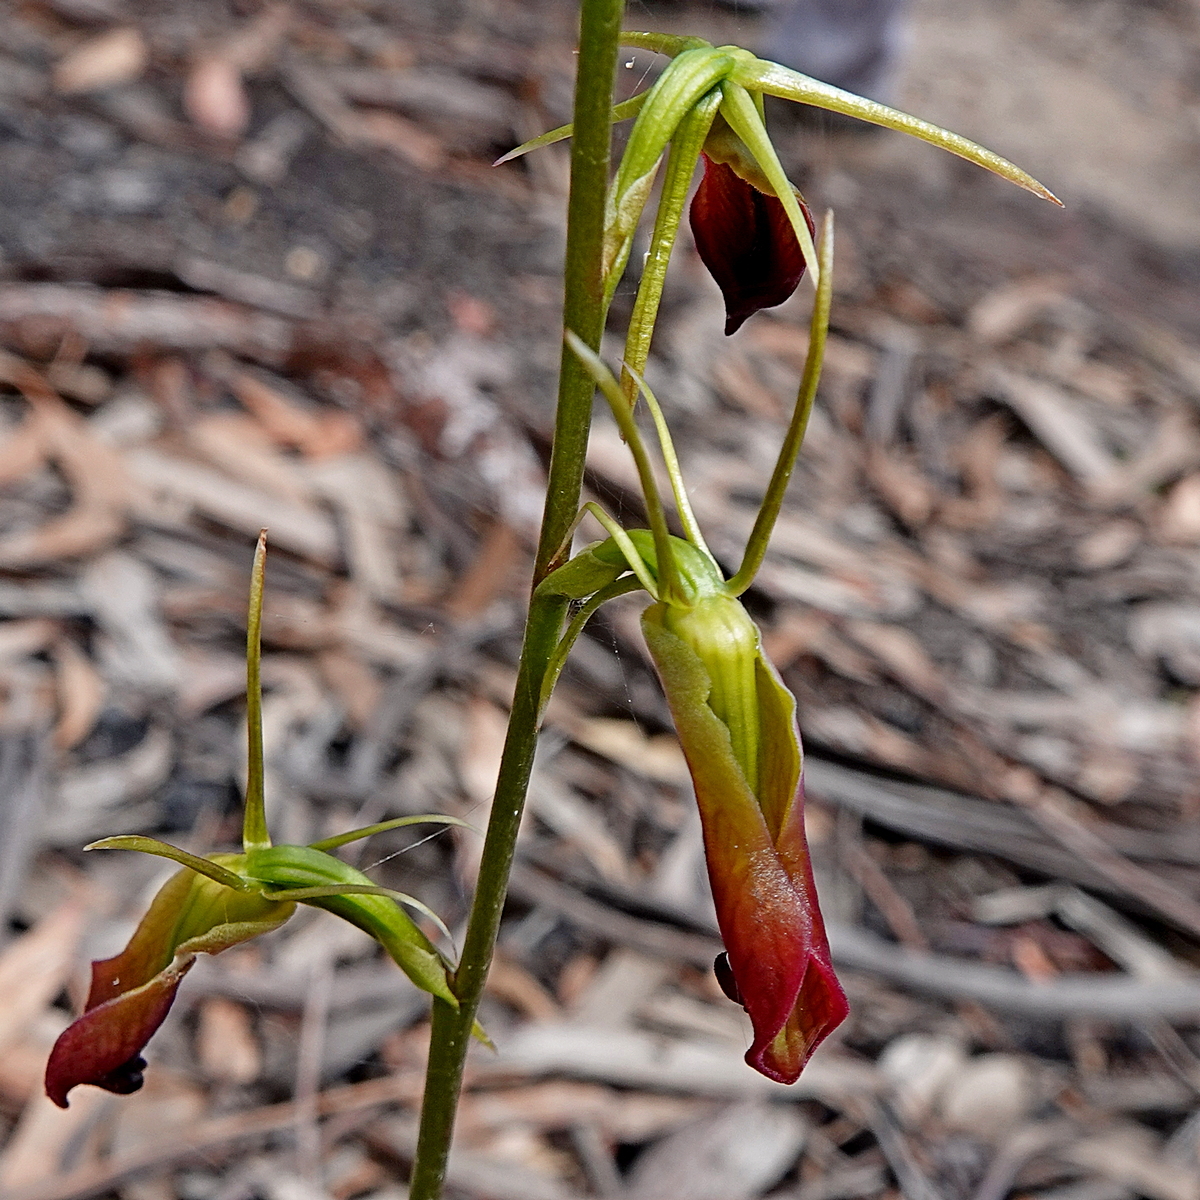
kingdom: Plantae
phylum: Tracheophyta
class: Liliopsida
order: Asparagales
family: Orchidaceae
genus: Cryptostylis
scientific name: Cryptostylis subulata
